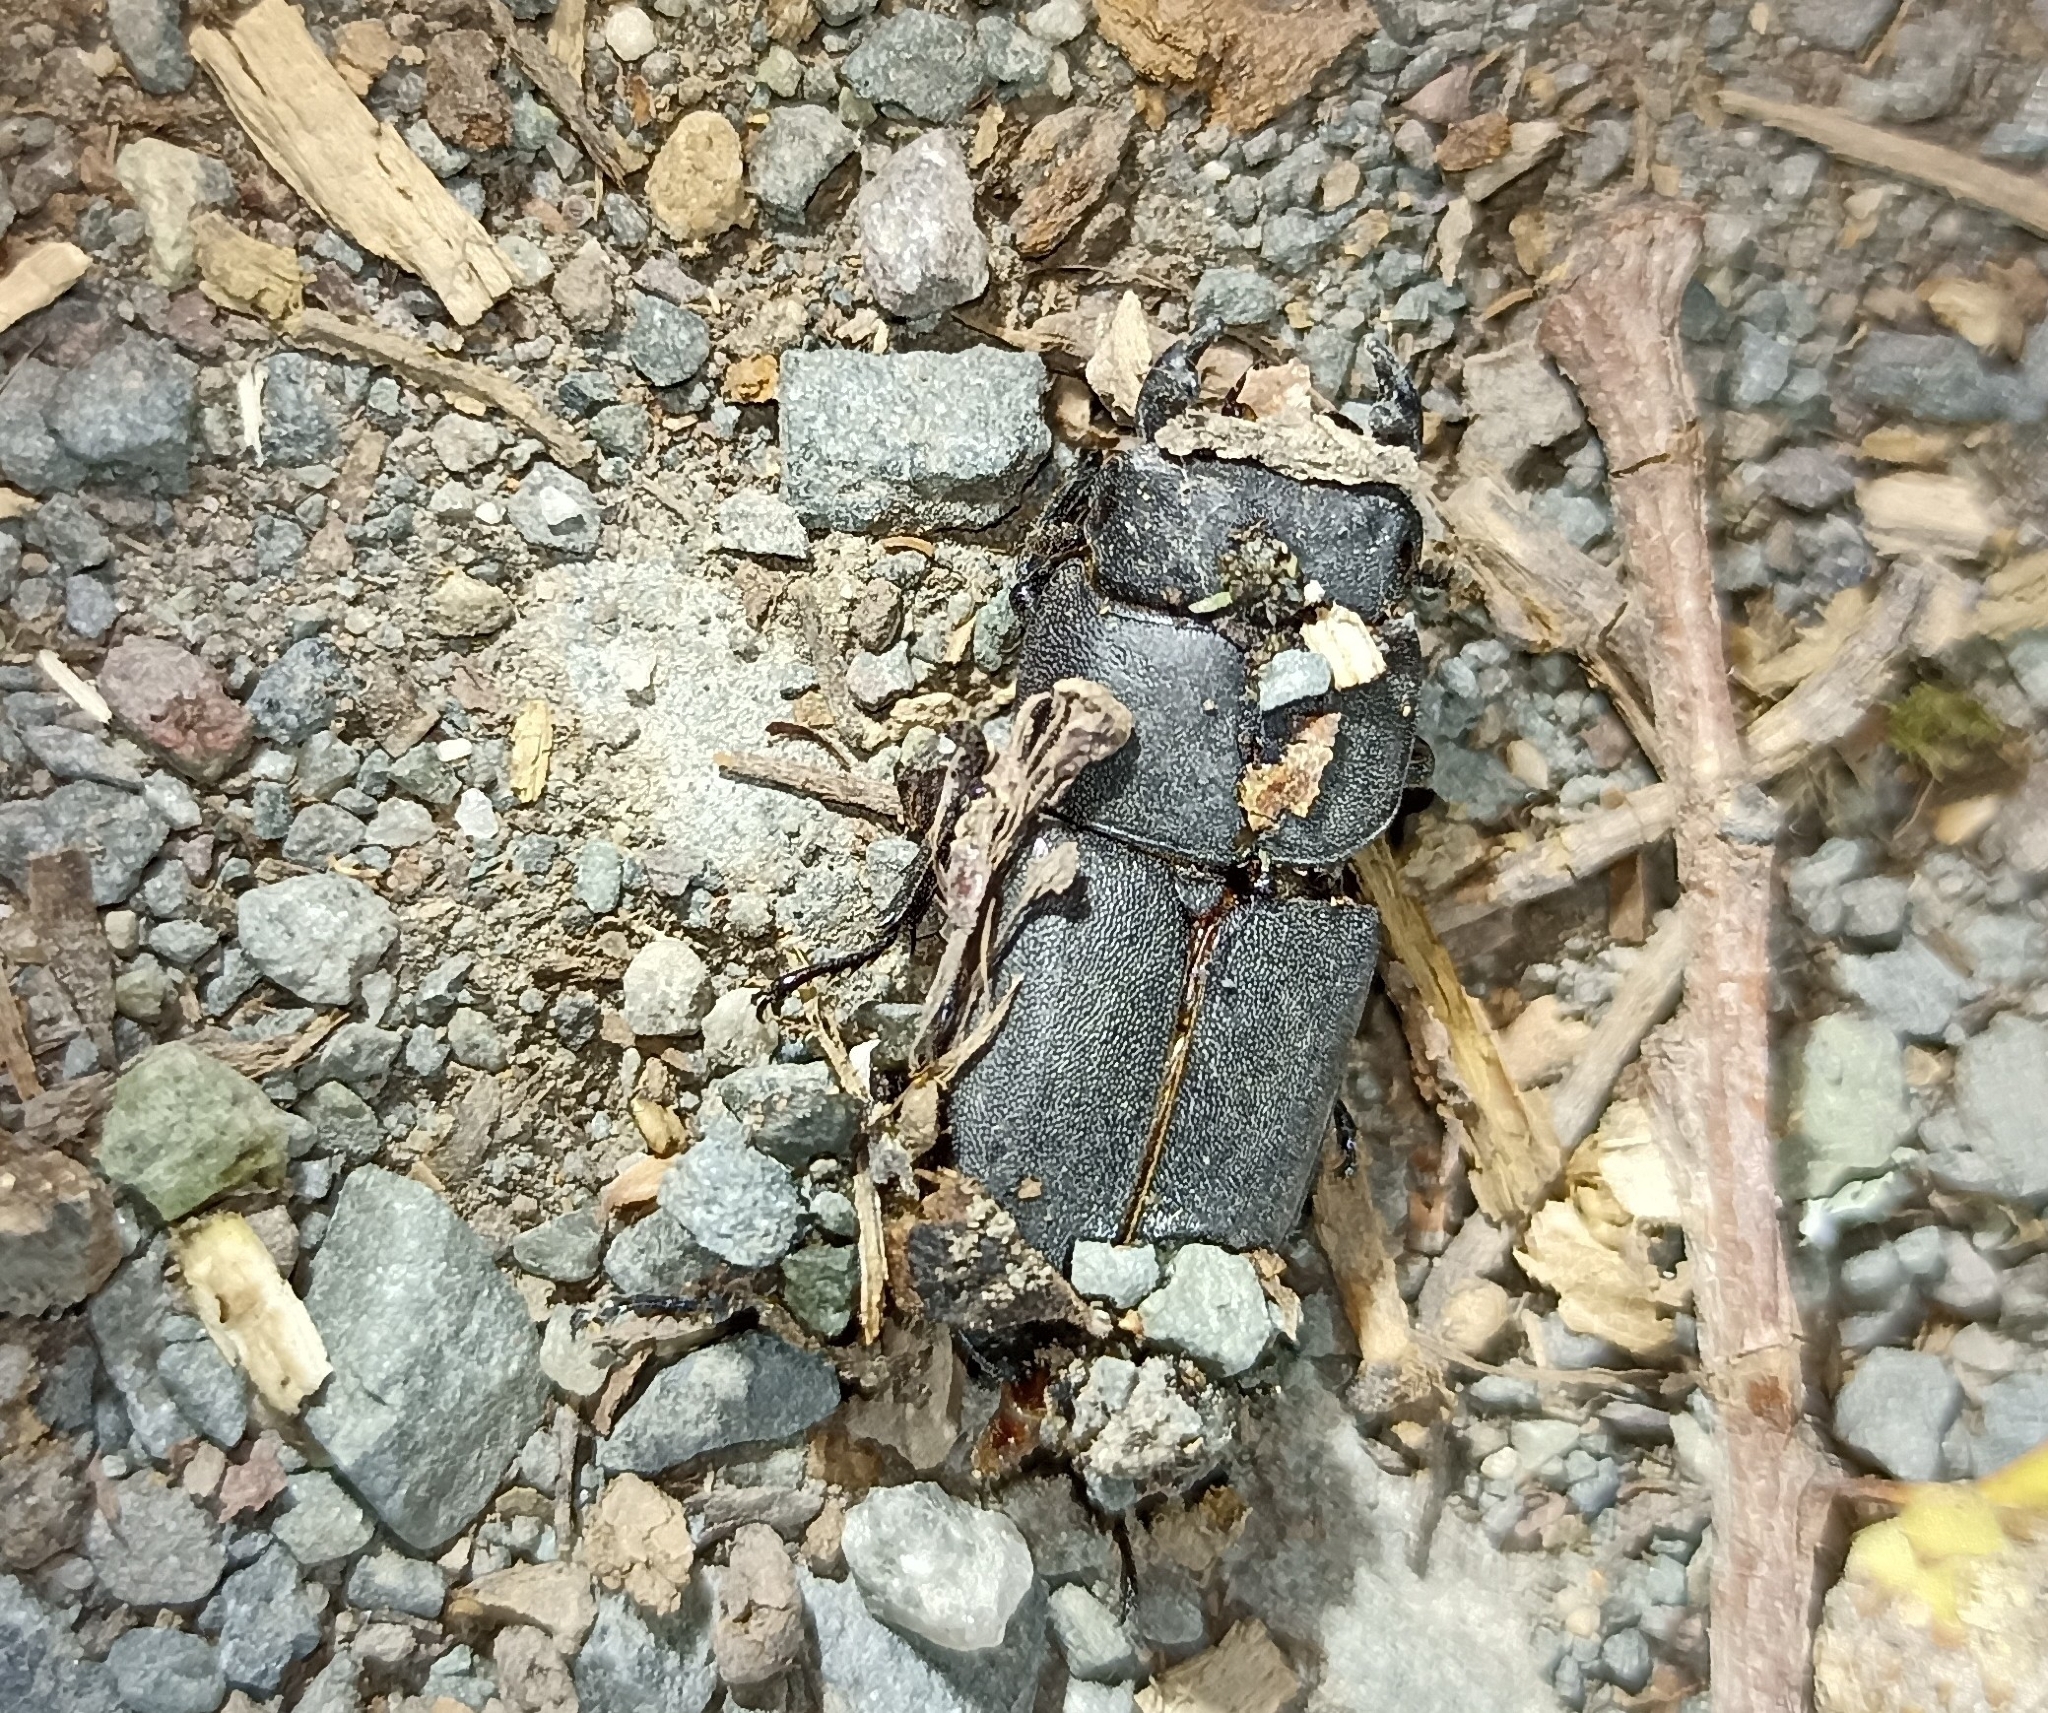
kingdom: Animalia
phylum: Arthropoda
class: Insecta
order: Coleoptera
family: Lucanidae
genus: Dorcus
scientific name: Dorcus parallelipipedus
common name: Lesser stag beetle
